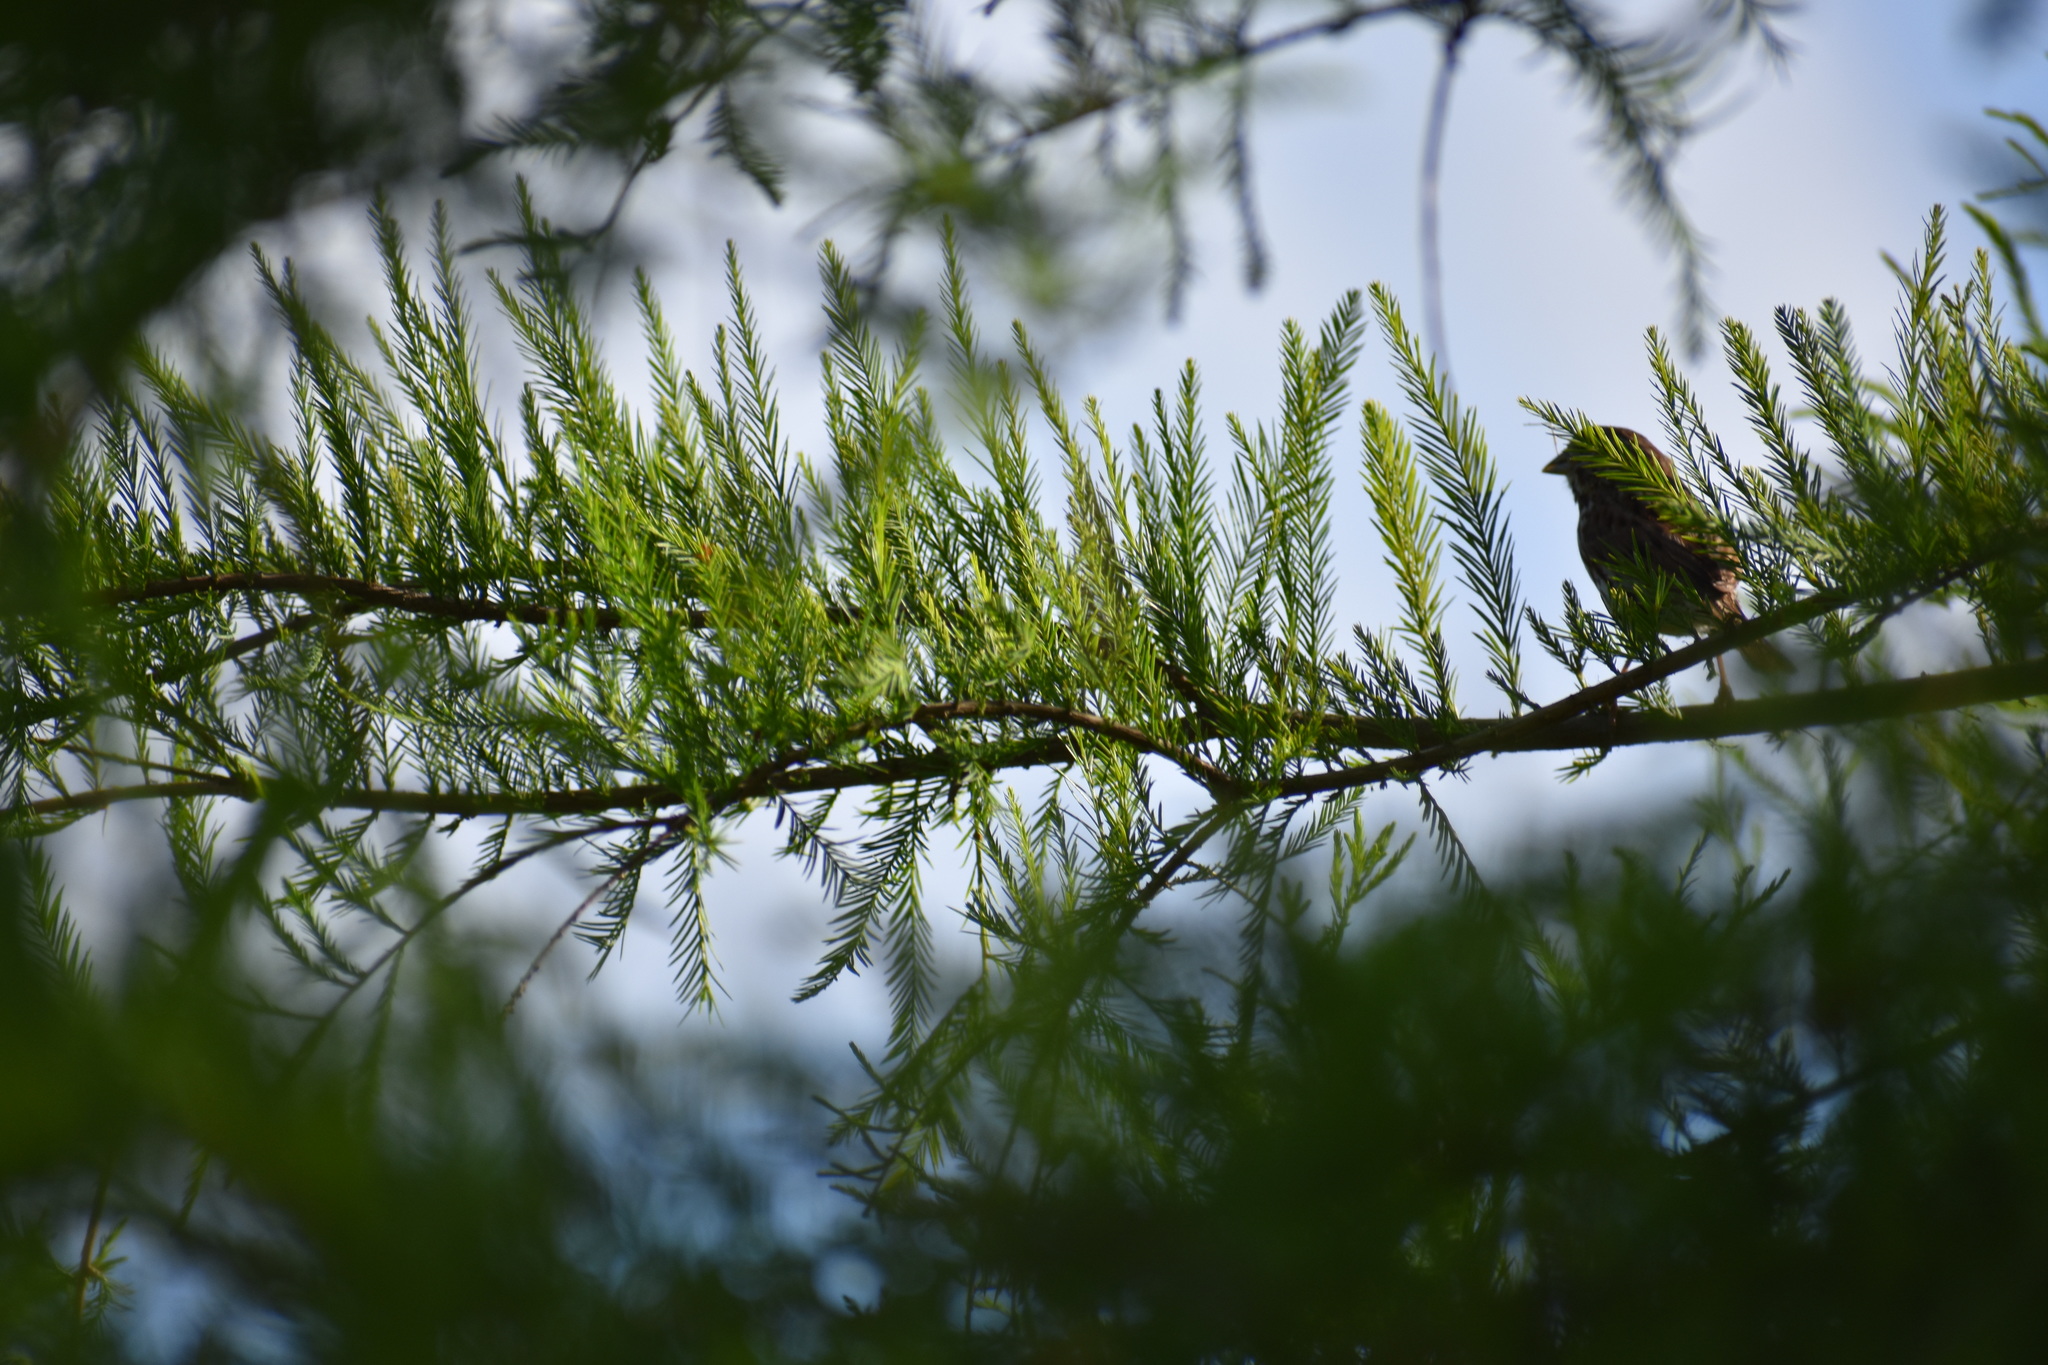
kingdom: Animalia
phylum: Chordata
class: Aves
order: Passeriformes
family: Passerellidae
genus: Melospiza
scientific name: Melospiza melodia
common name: Song sparrow
